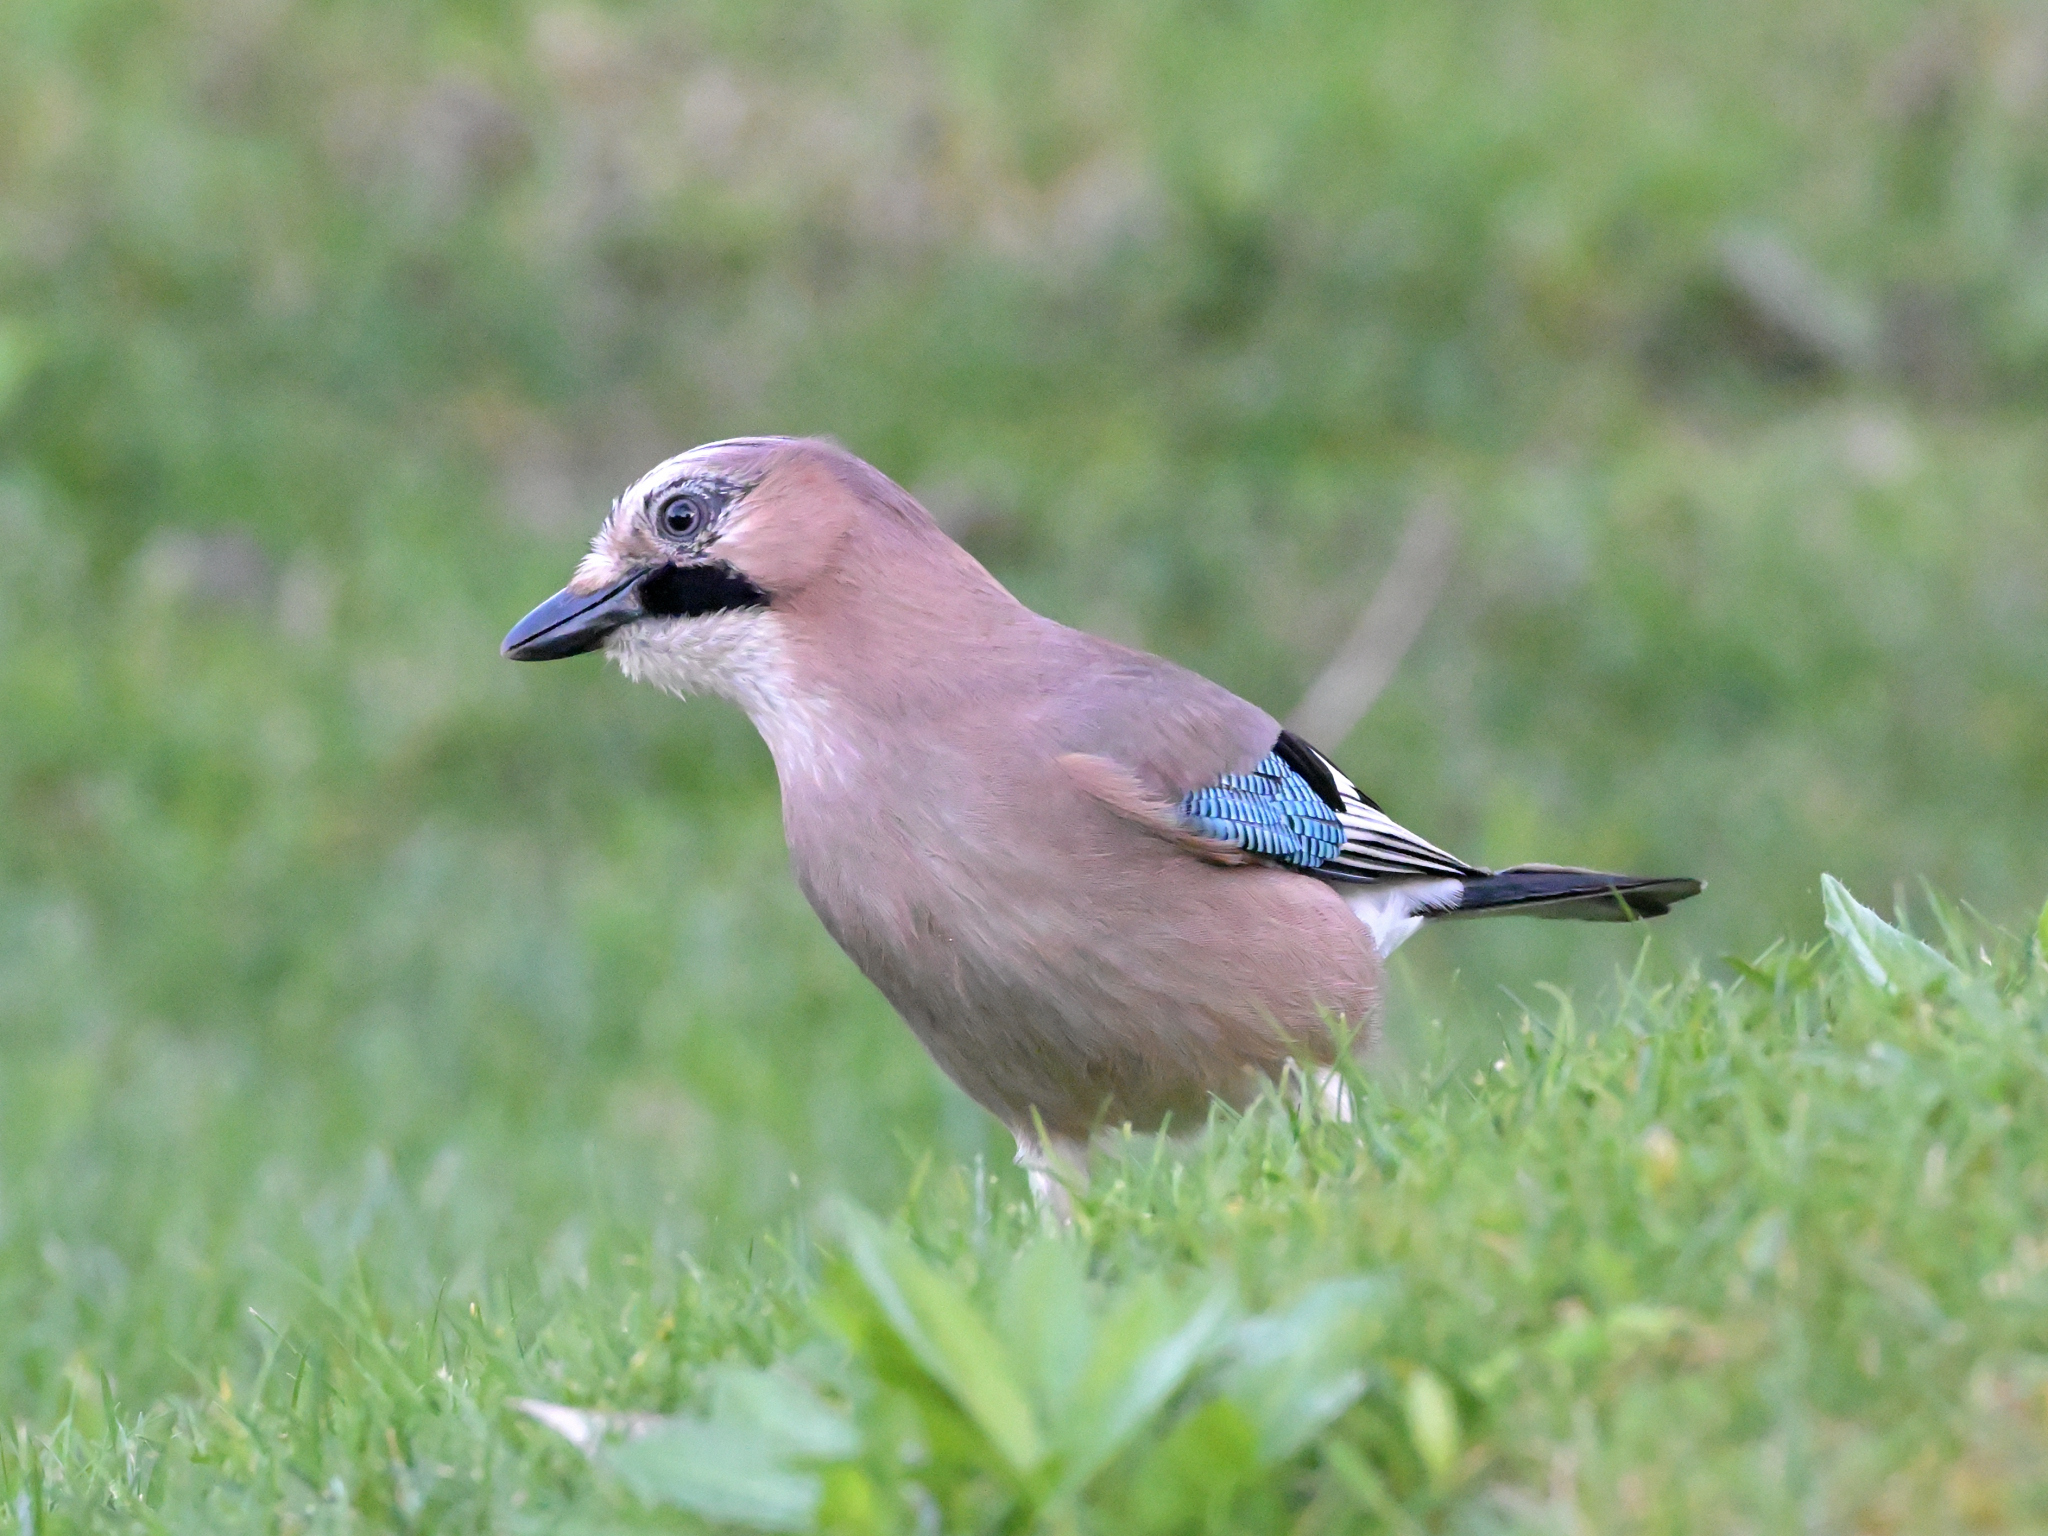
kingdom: Animalia
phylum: Chordata
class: Aves
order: Passeriformes
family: Corvidae
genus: Garrulus
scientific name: Garrulus glandarius
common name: Eurasian jay
